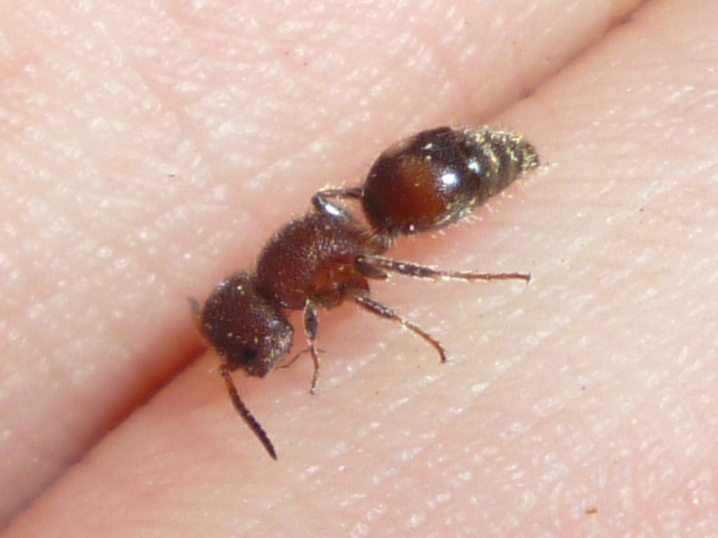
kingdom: Animalia
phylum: Arthropoda
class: Insecta
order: Hymenoptera
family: Mutillidae
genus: Pseudomethoca
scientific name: Pseudomethoca
